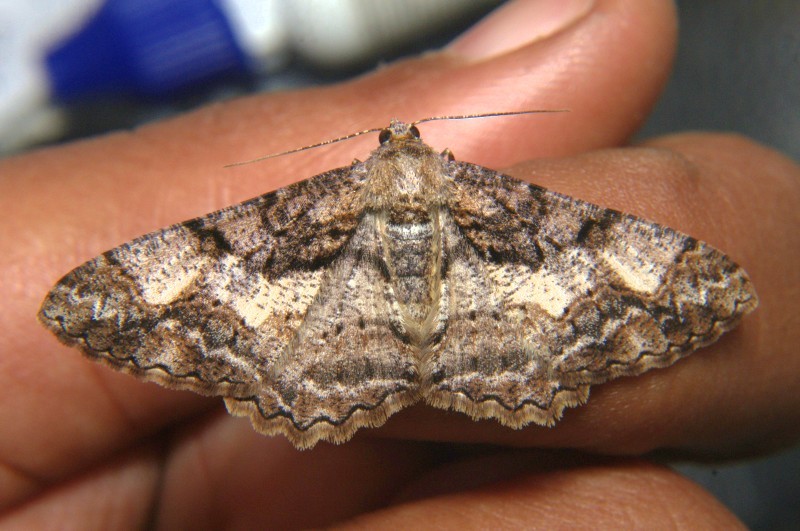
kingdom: Animalia
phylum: Arthropoda
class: Insecta
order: Lepidoptera
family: Geometridae
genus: Alcis
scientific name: Alcis admissaria
